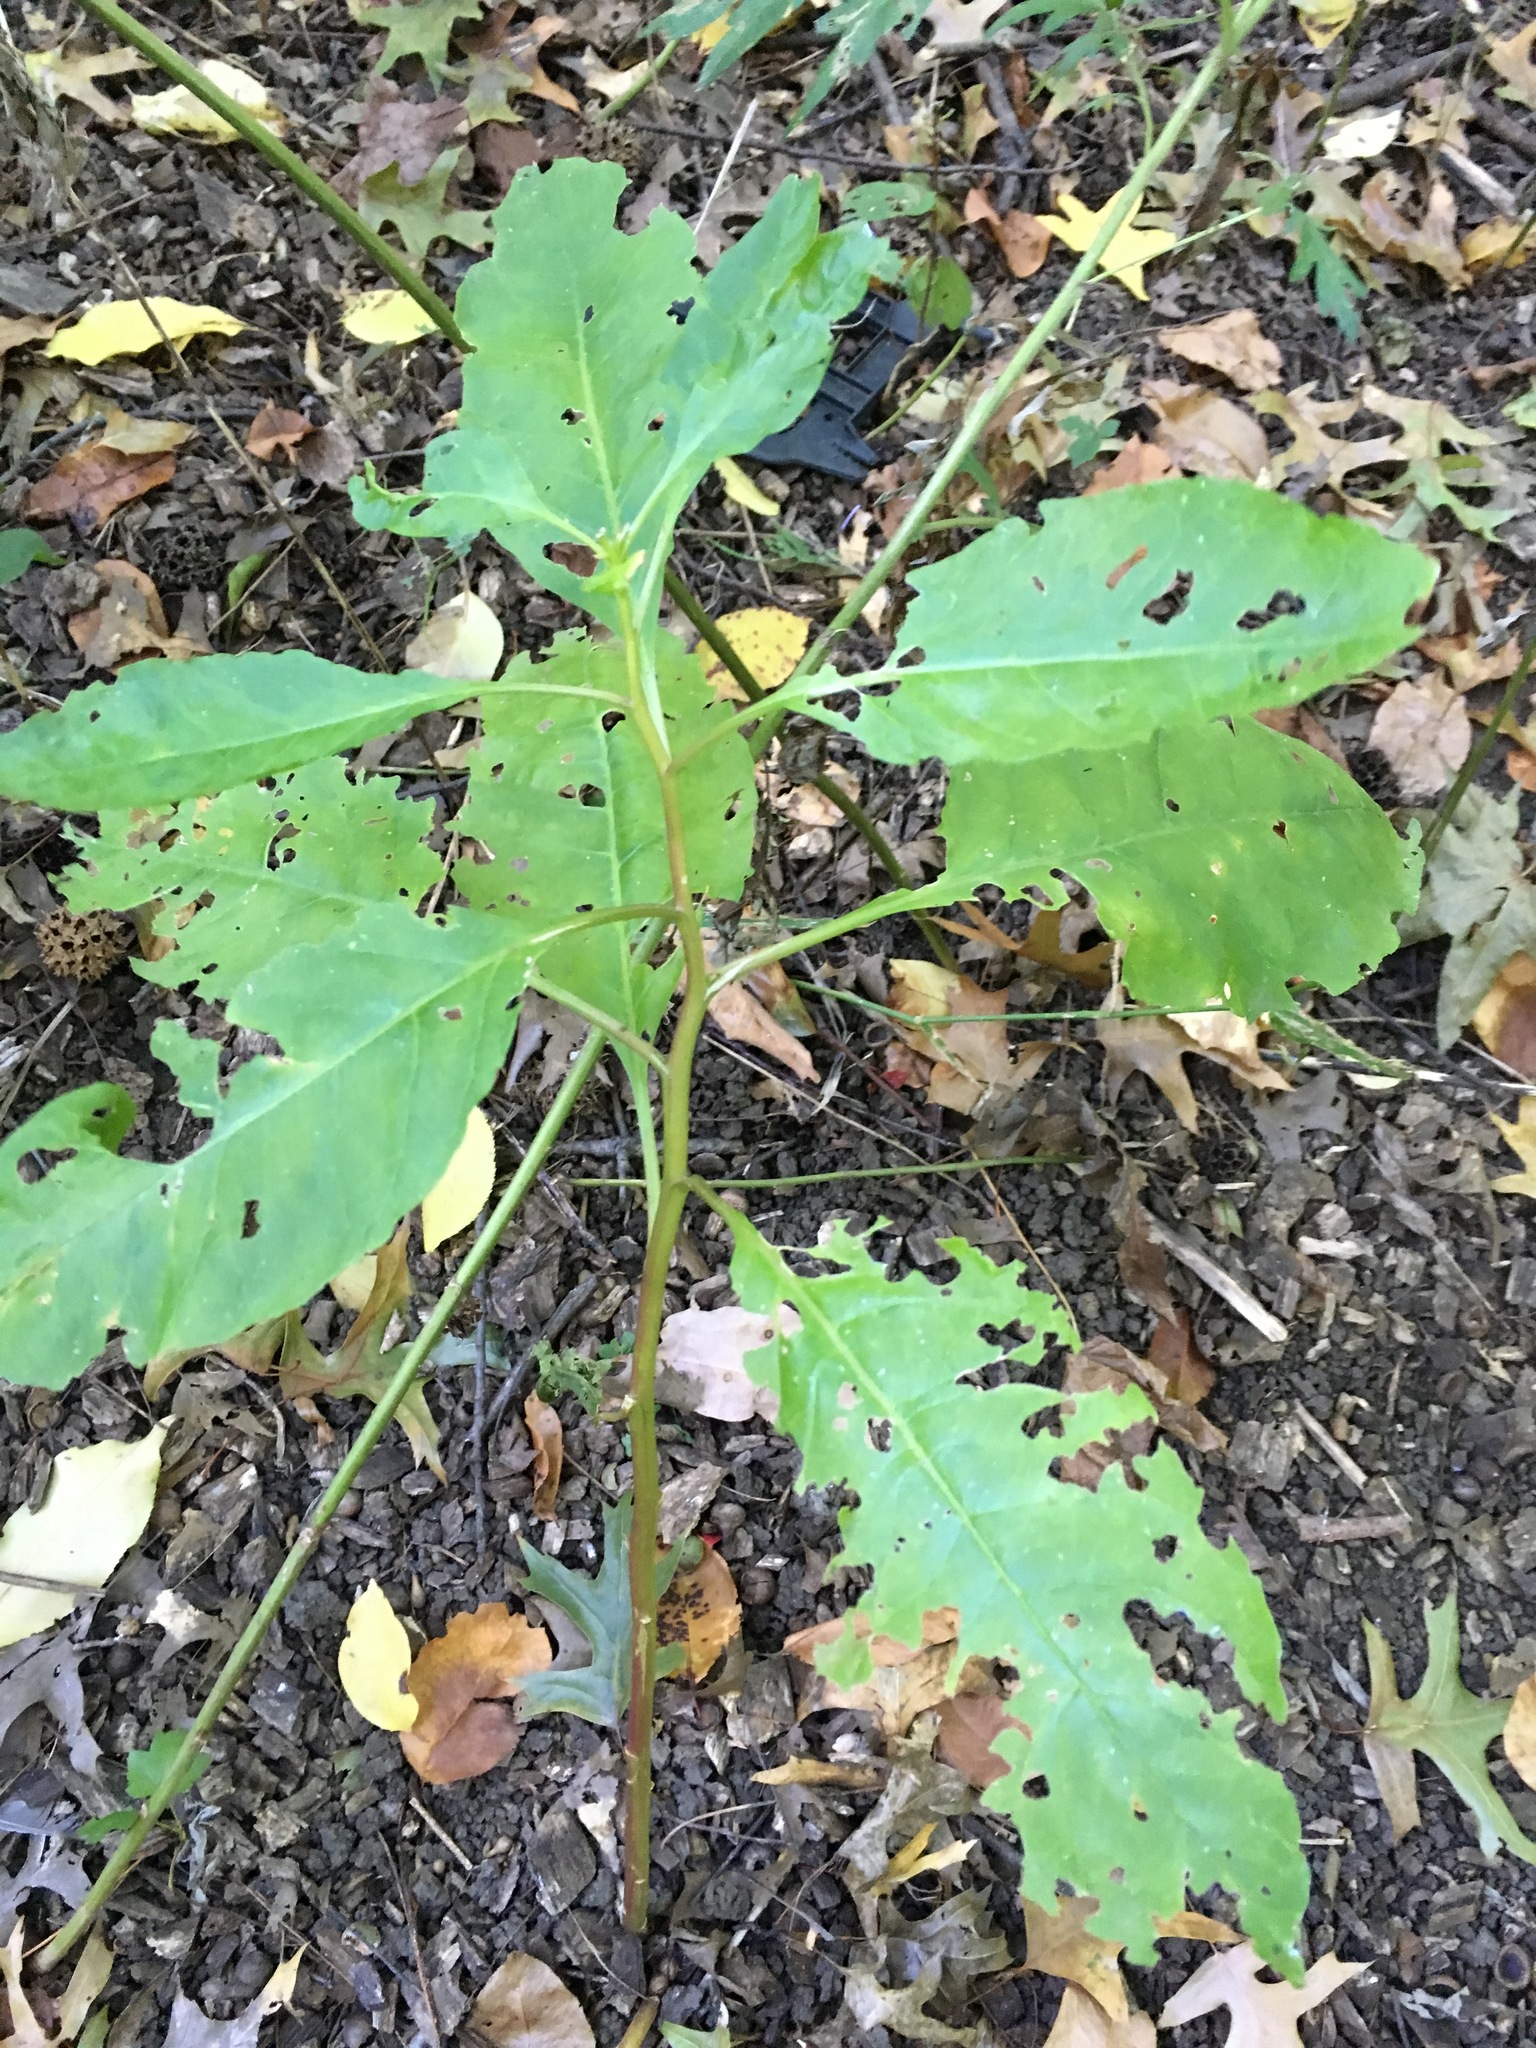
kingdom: Plantae
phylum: Tracheophyta
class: Magnoliopsida
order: Caryophyllales
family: Phytolaccaceae
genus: Phytolacca
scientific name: Phytolacca americana
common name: American pokeweed
